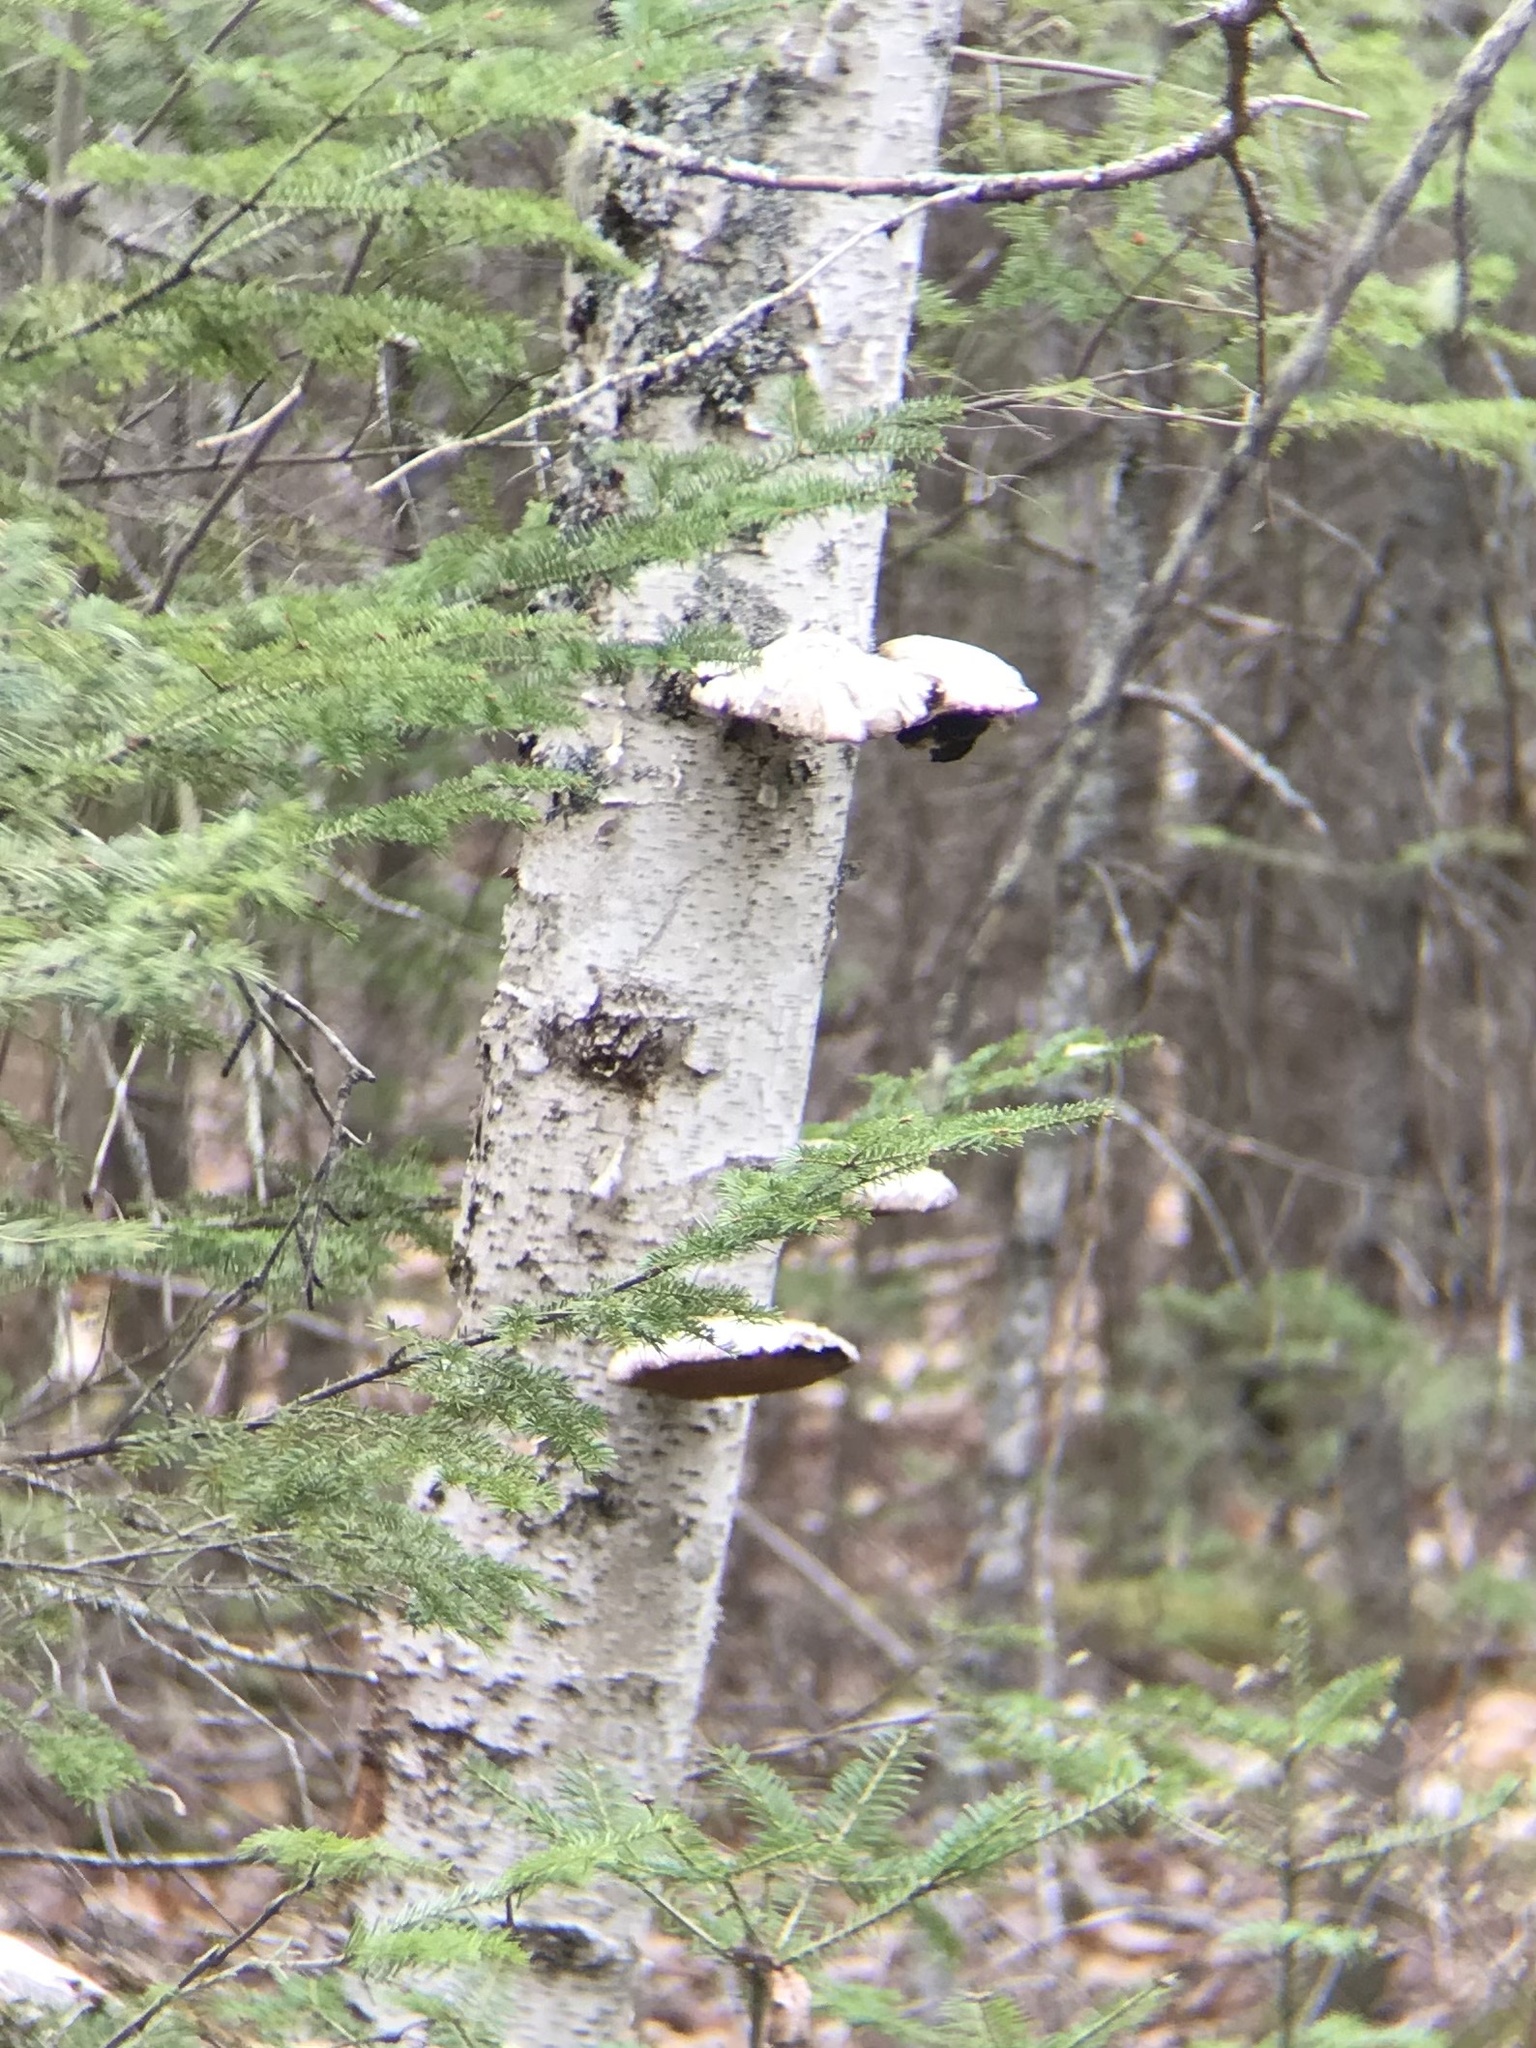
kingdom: Fungi
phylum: Basidiomycota
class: Agaricomycetes
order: Polyporales
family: Fomitopsidaceae
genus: Fomitopsis
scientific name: Fomitopsis betulina
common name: Birch polypore
